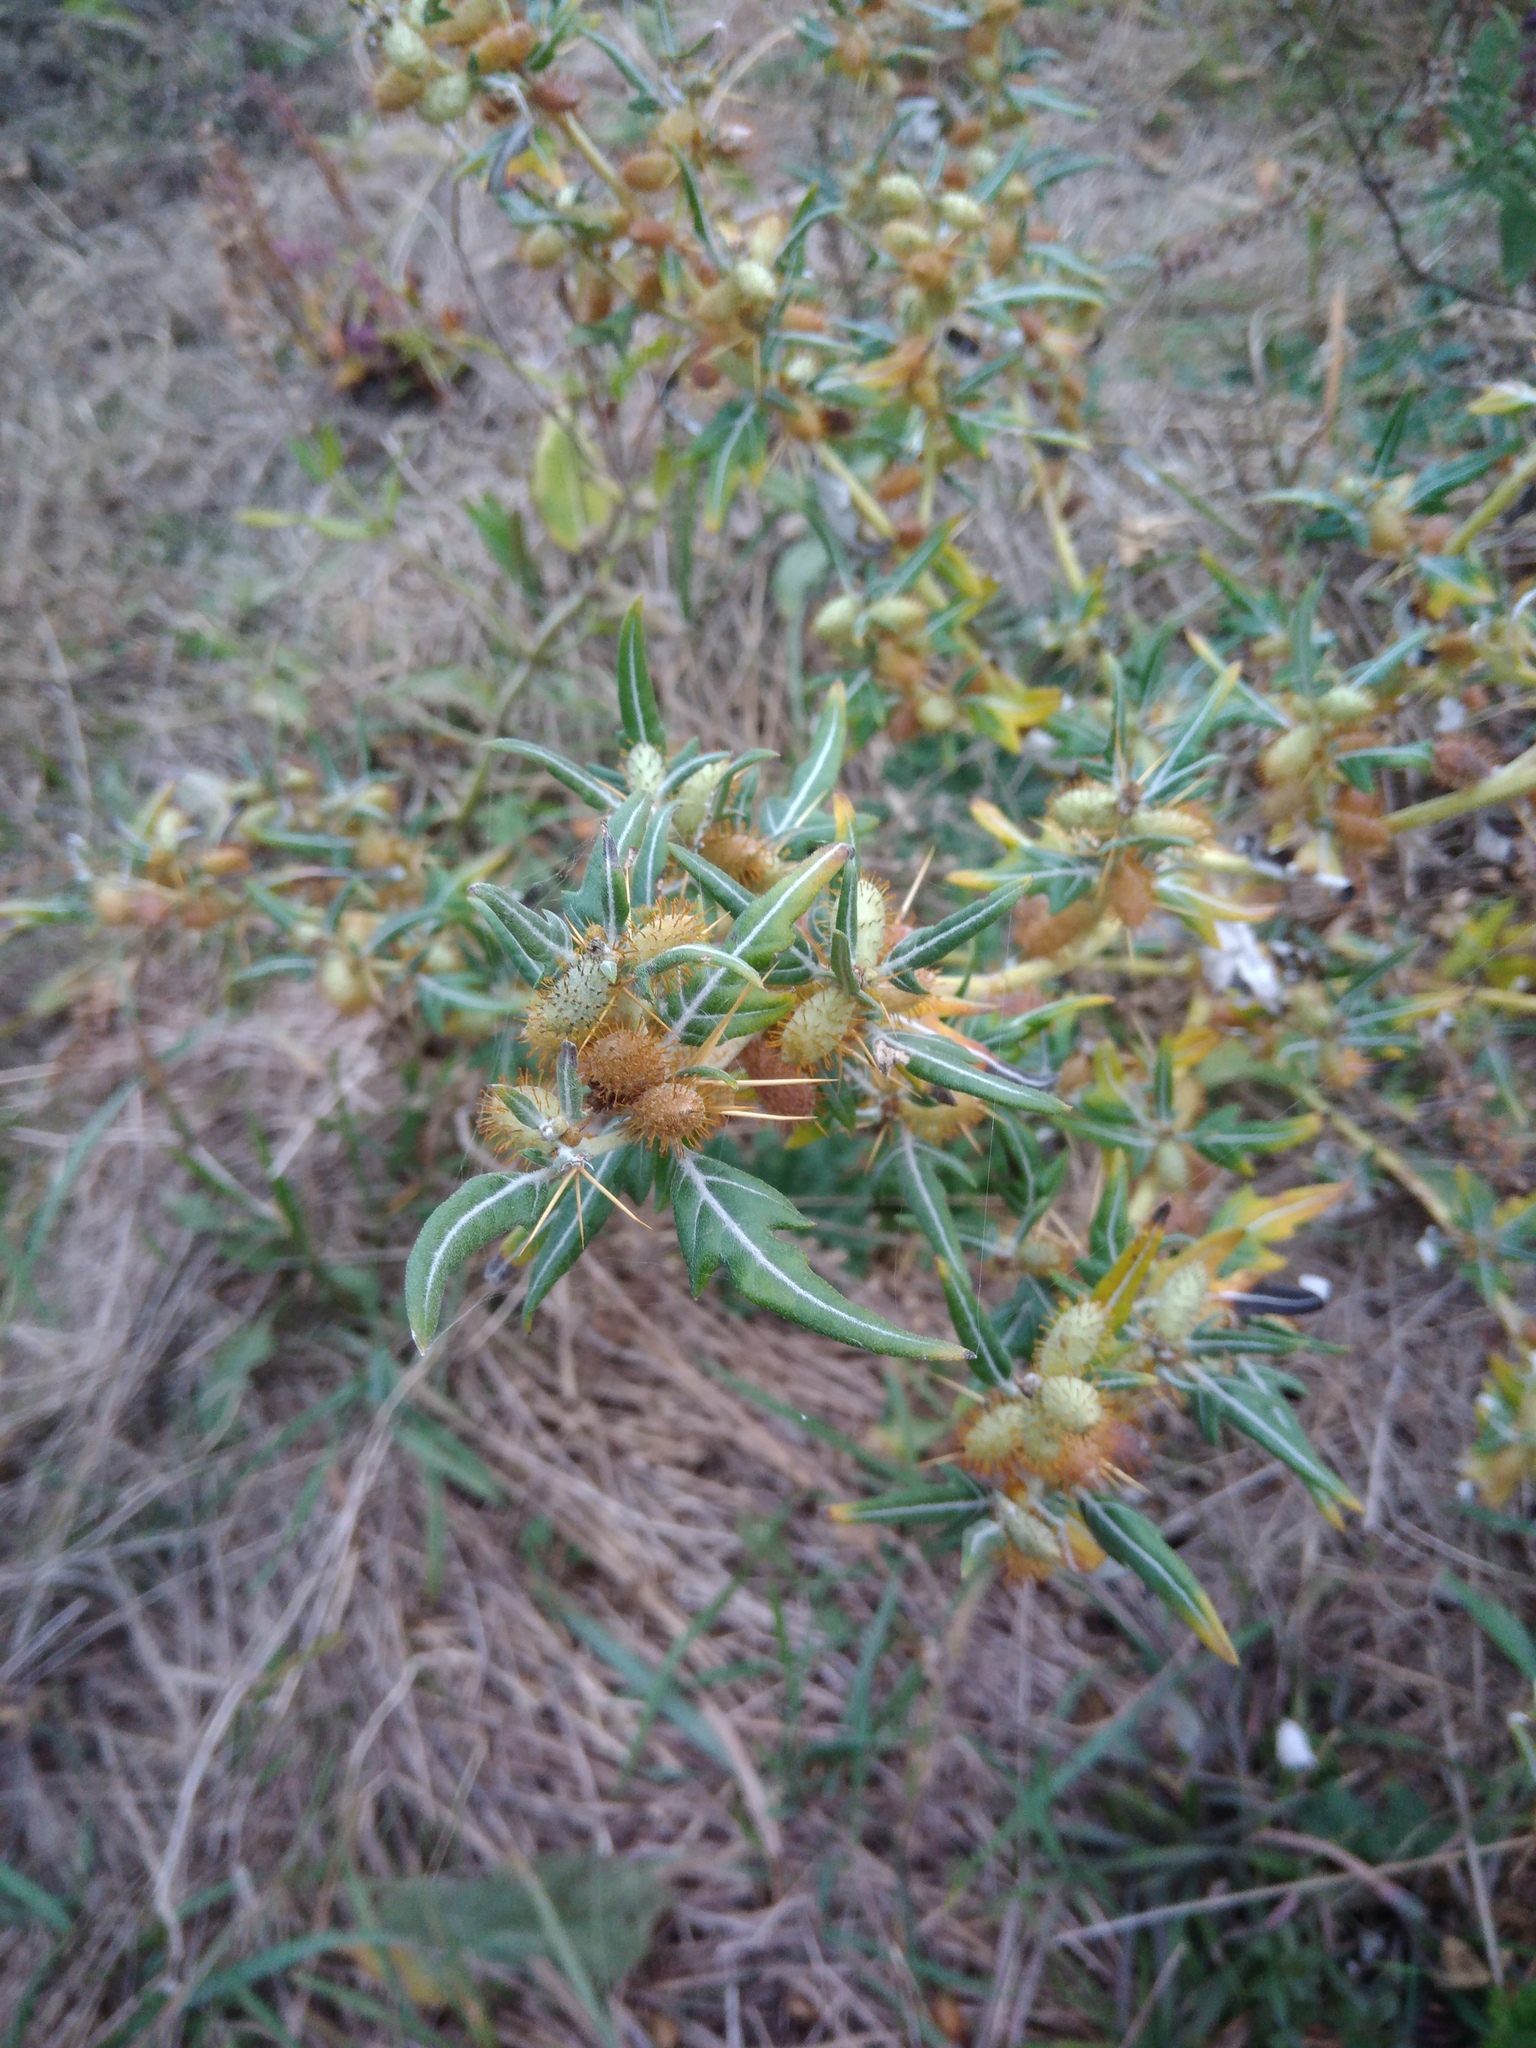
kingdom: Plantae
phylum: Tracheophyta
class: Magnoliopsida
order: Asterales
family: Asteraceae
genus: Xanthium
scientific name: Xanthium spinosum
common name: Spiny cocklebur
